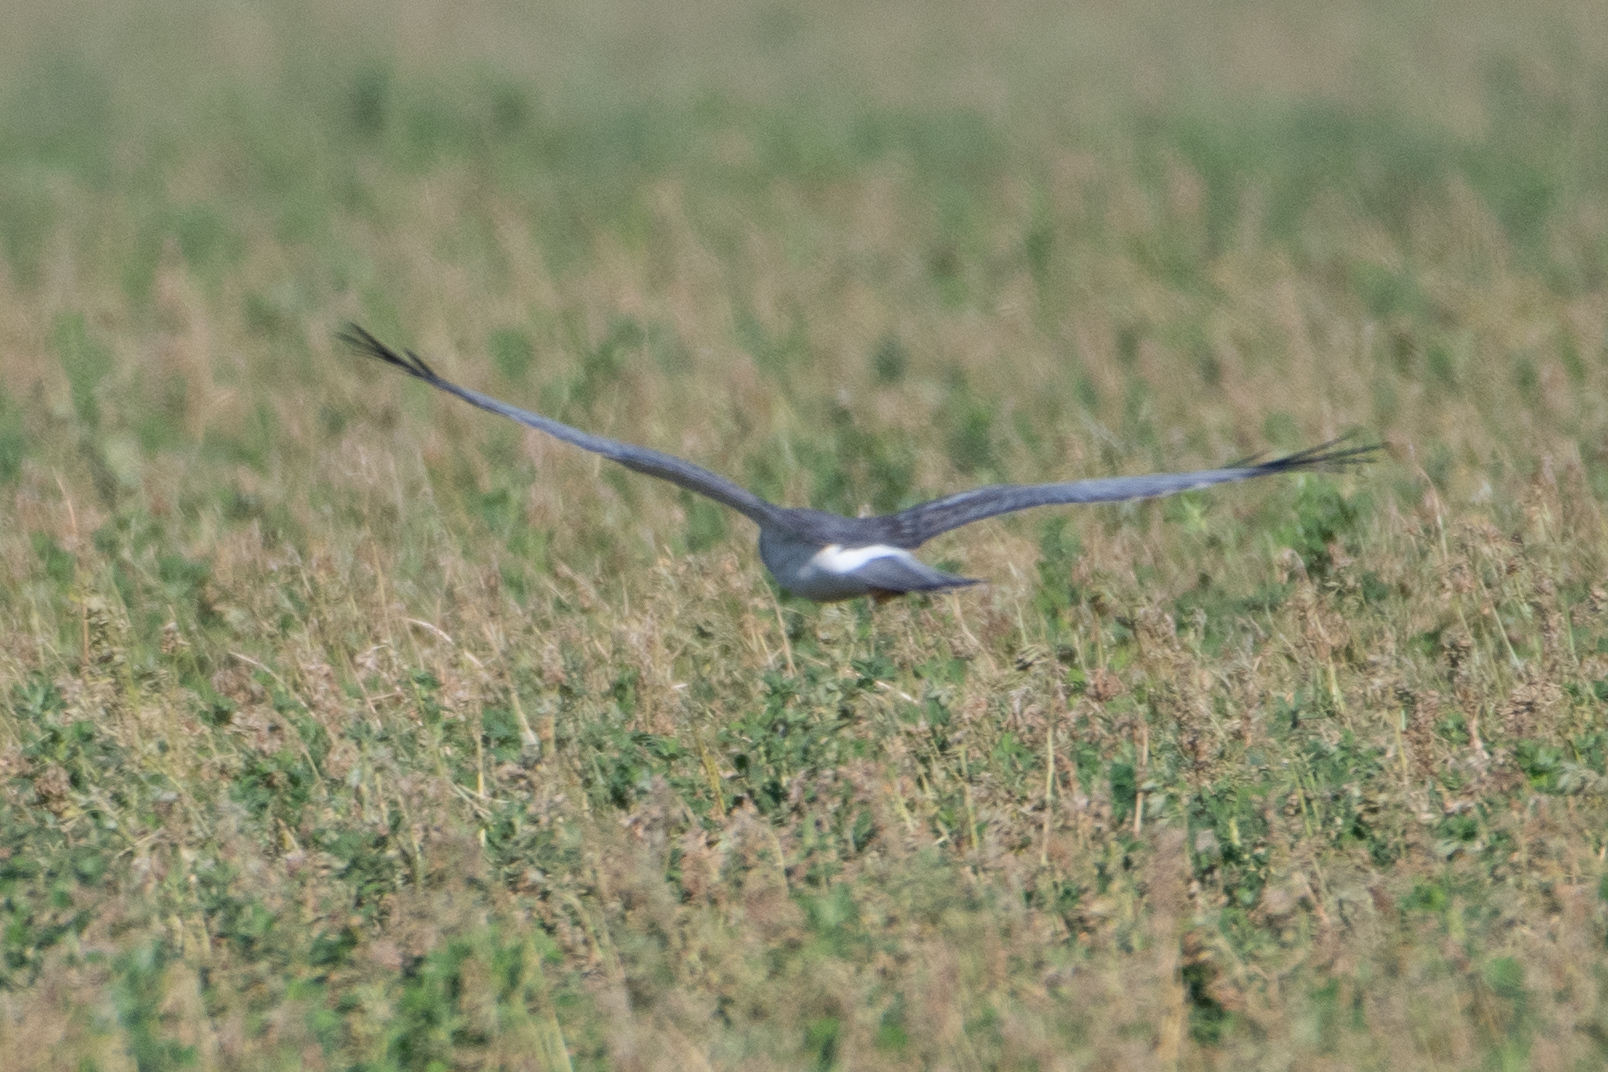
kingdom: Animalia
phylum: Chordata
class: Aves
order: Accipitriformes
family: Accipitridae
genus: Circus
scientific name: Circus cyaneus
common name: Hen harrier
